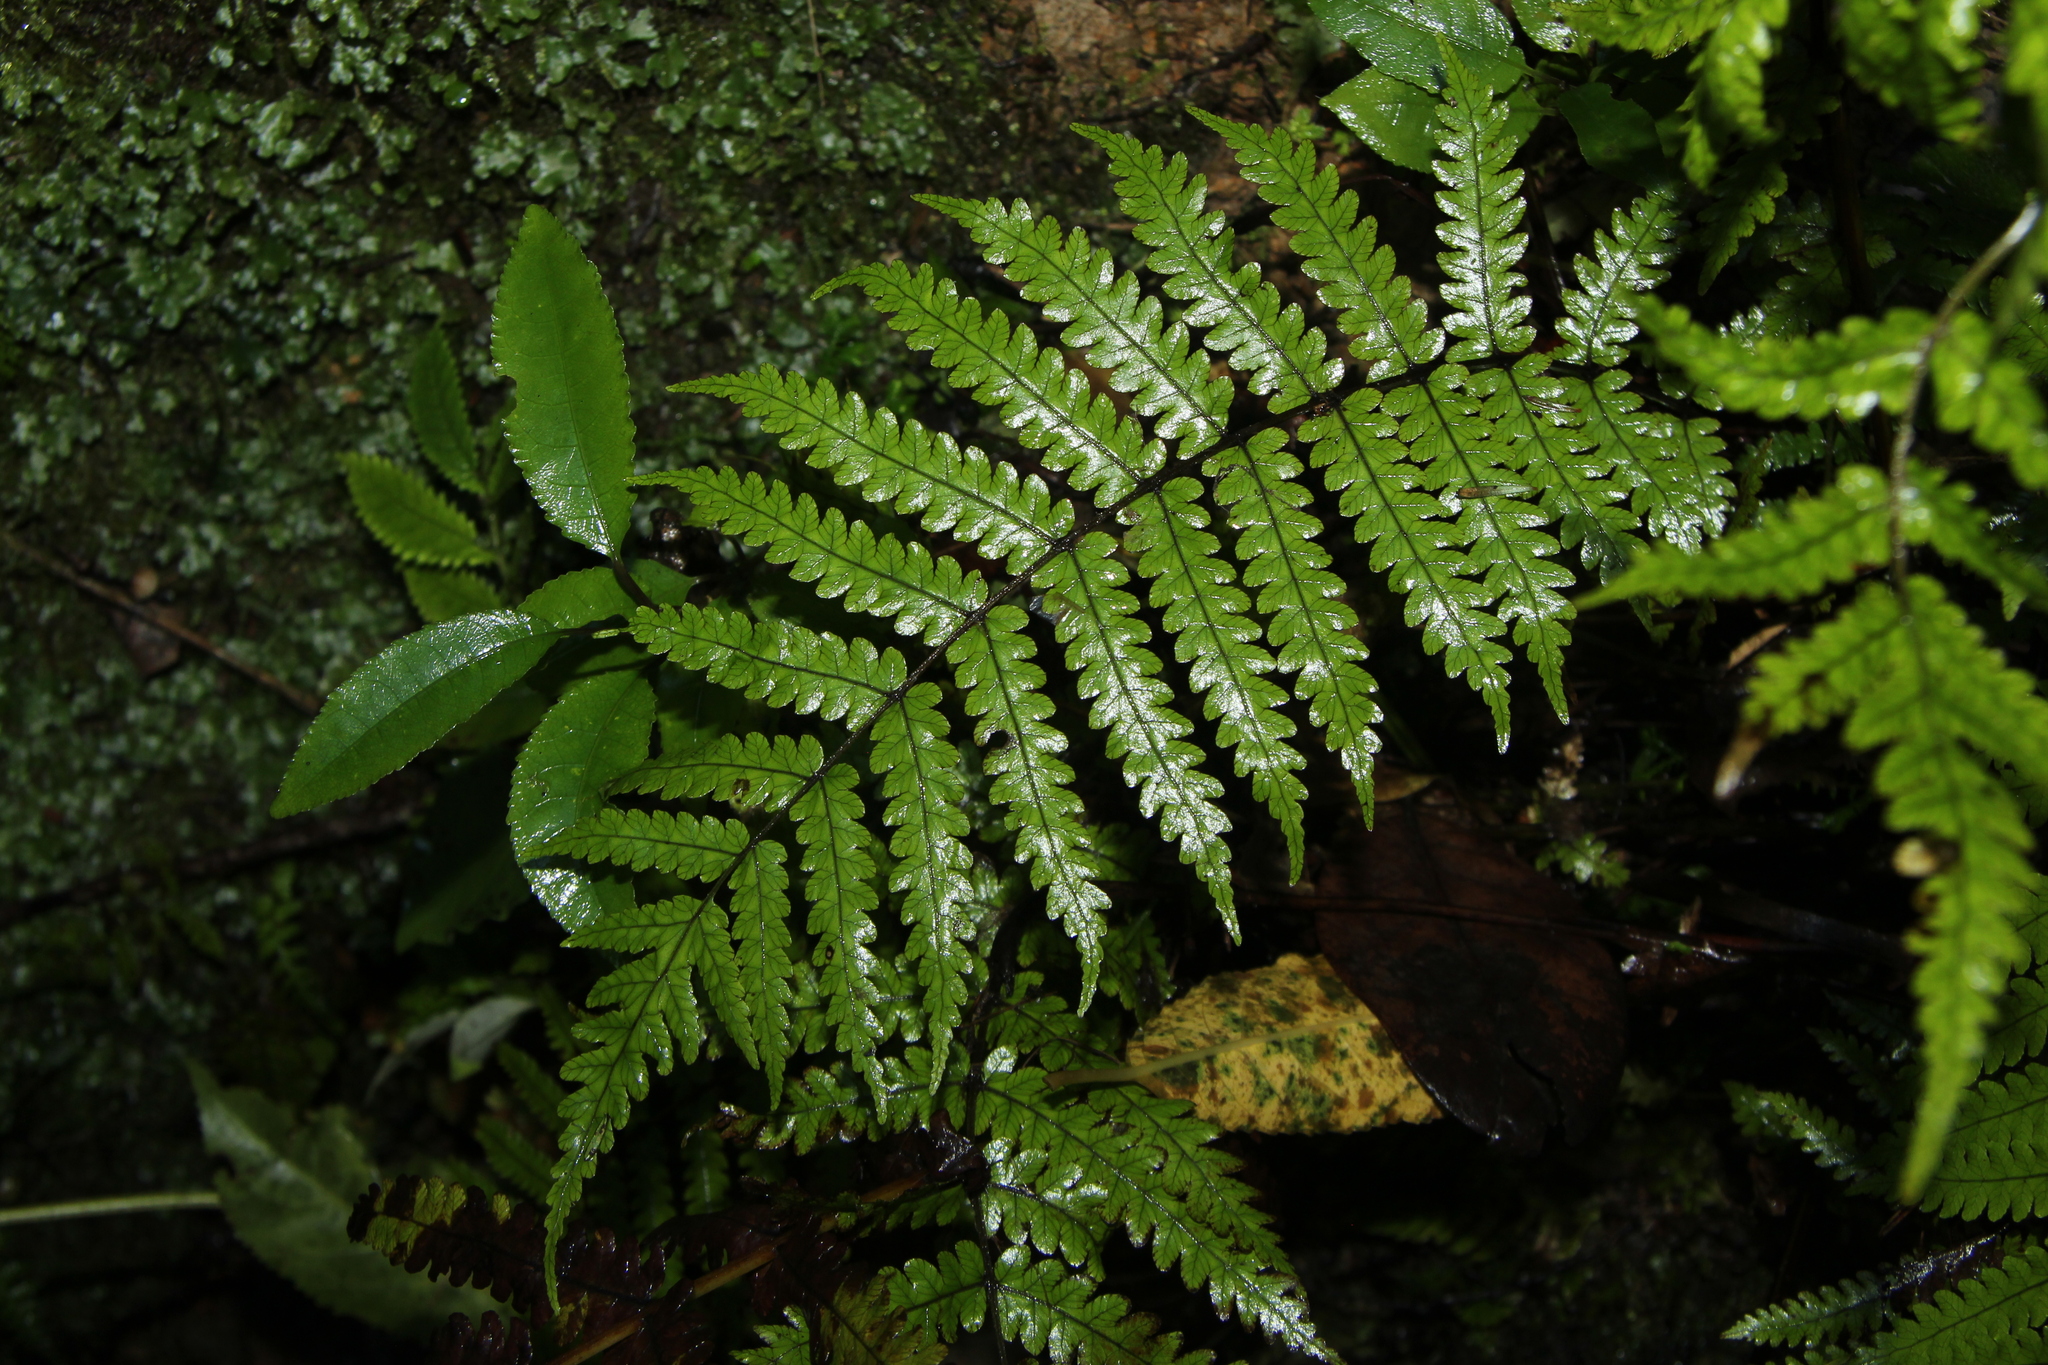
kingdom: Plantae
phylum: Tracheophyta
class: Polypodiopsida
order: Polypodiales
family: Thelypteridaceae
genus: Pakau
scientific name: Pakau pennigera
